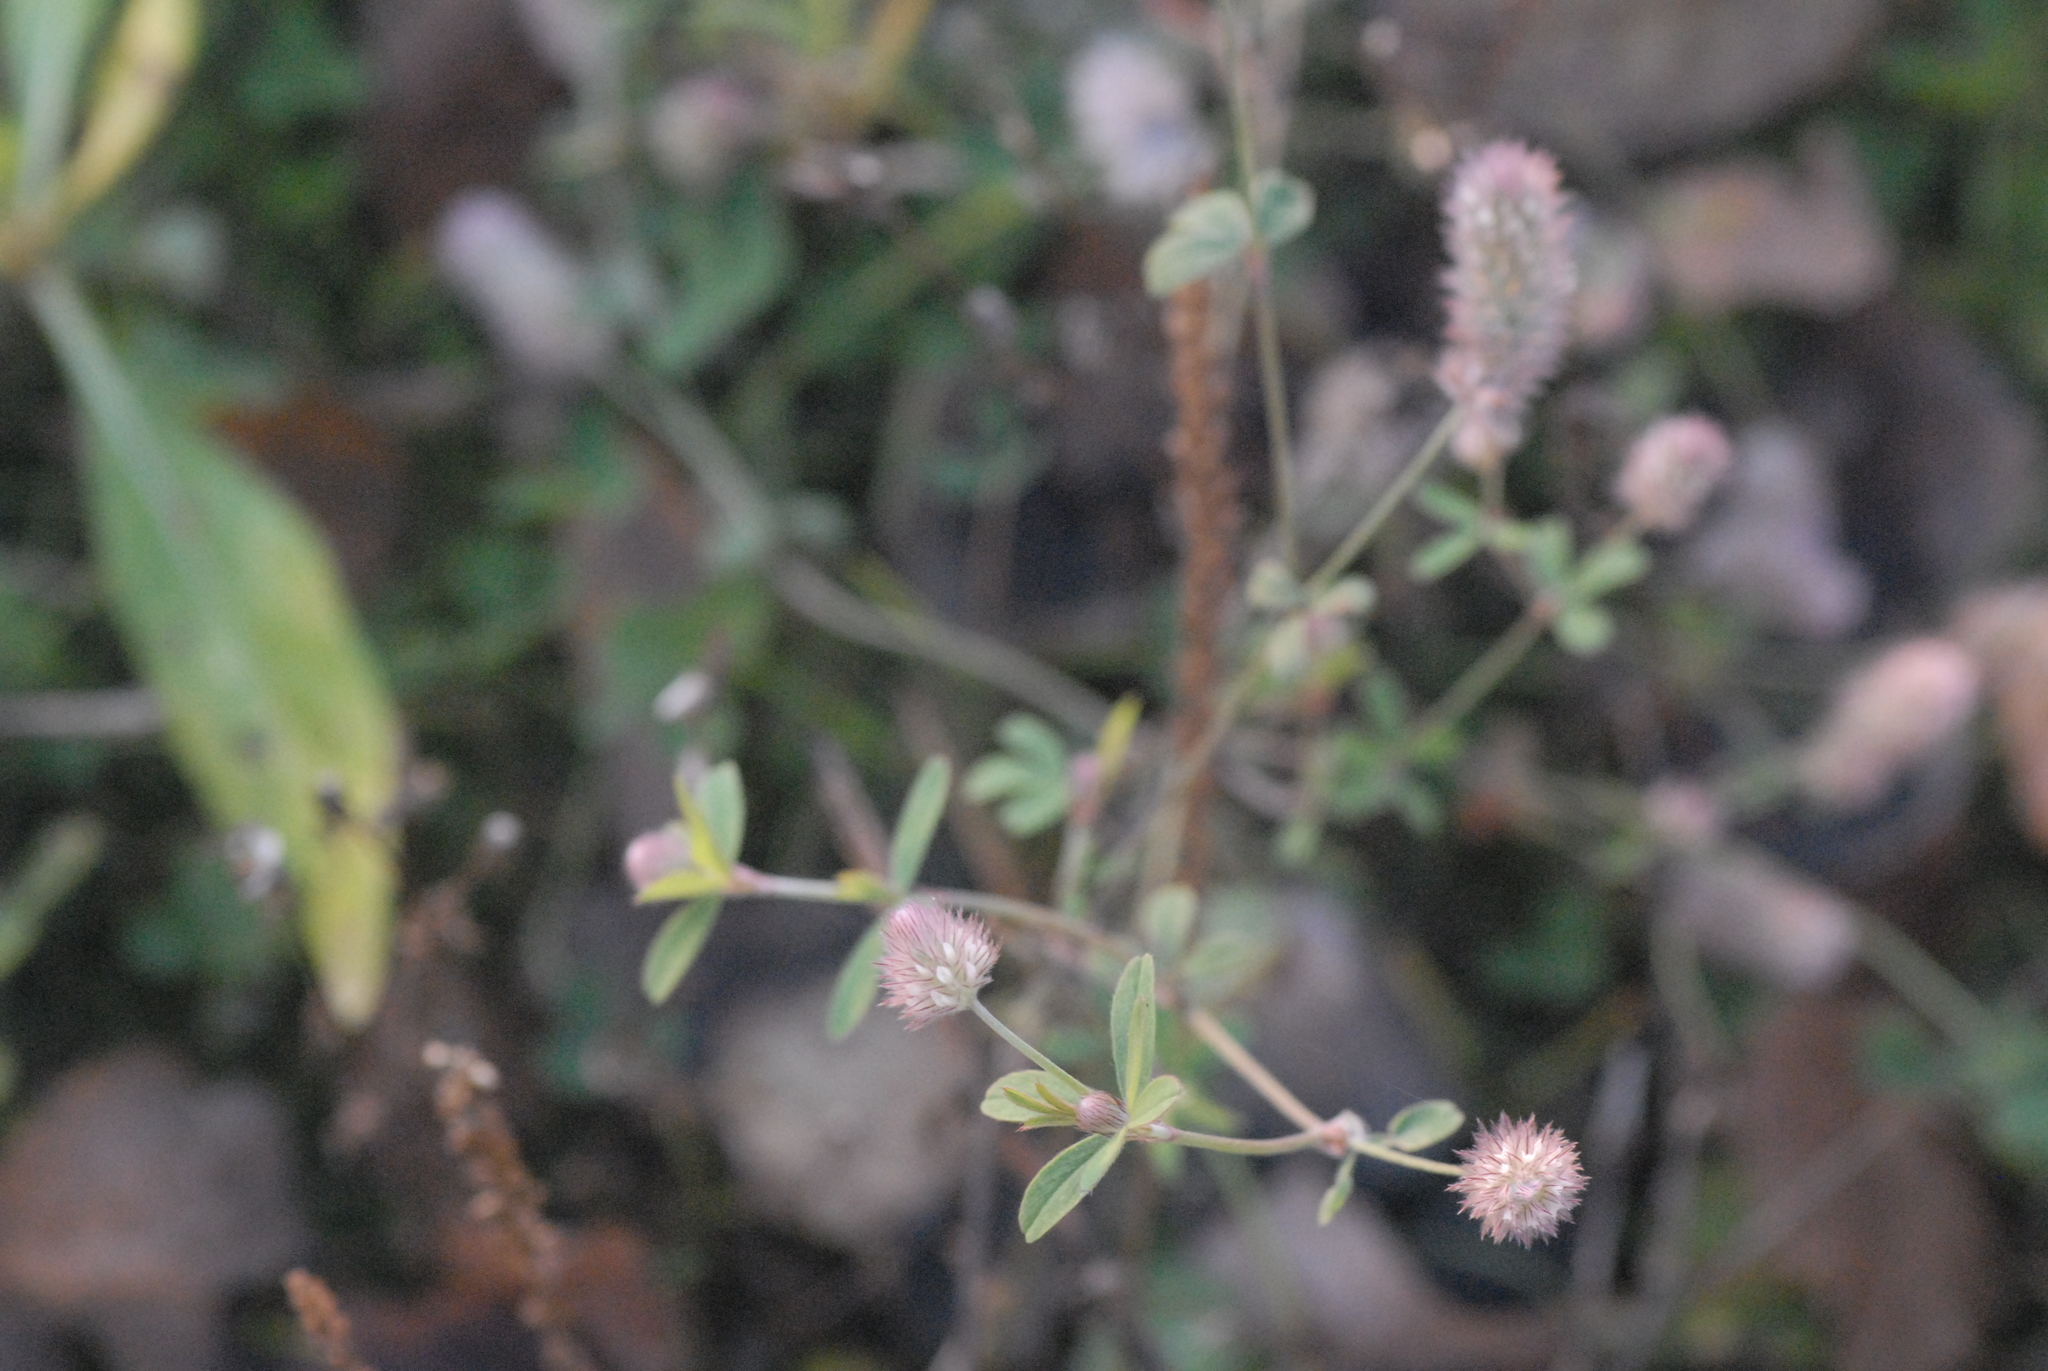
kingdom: Plantae
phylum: Tracheophyta
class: Magnoliopsida
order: Fabales
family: Fabaceae
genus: Trifolium
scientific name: Trifolium arvense
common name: Hare's-foot clover
